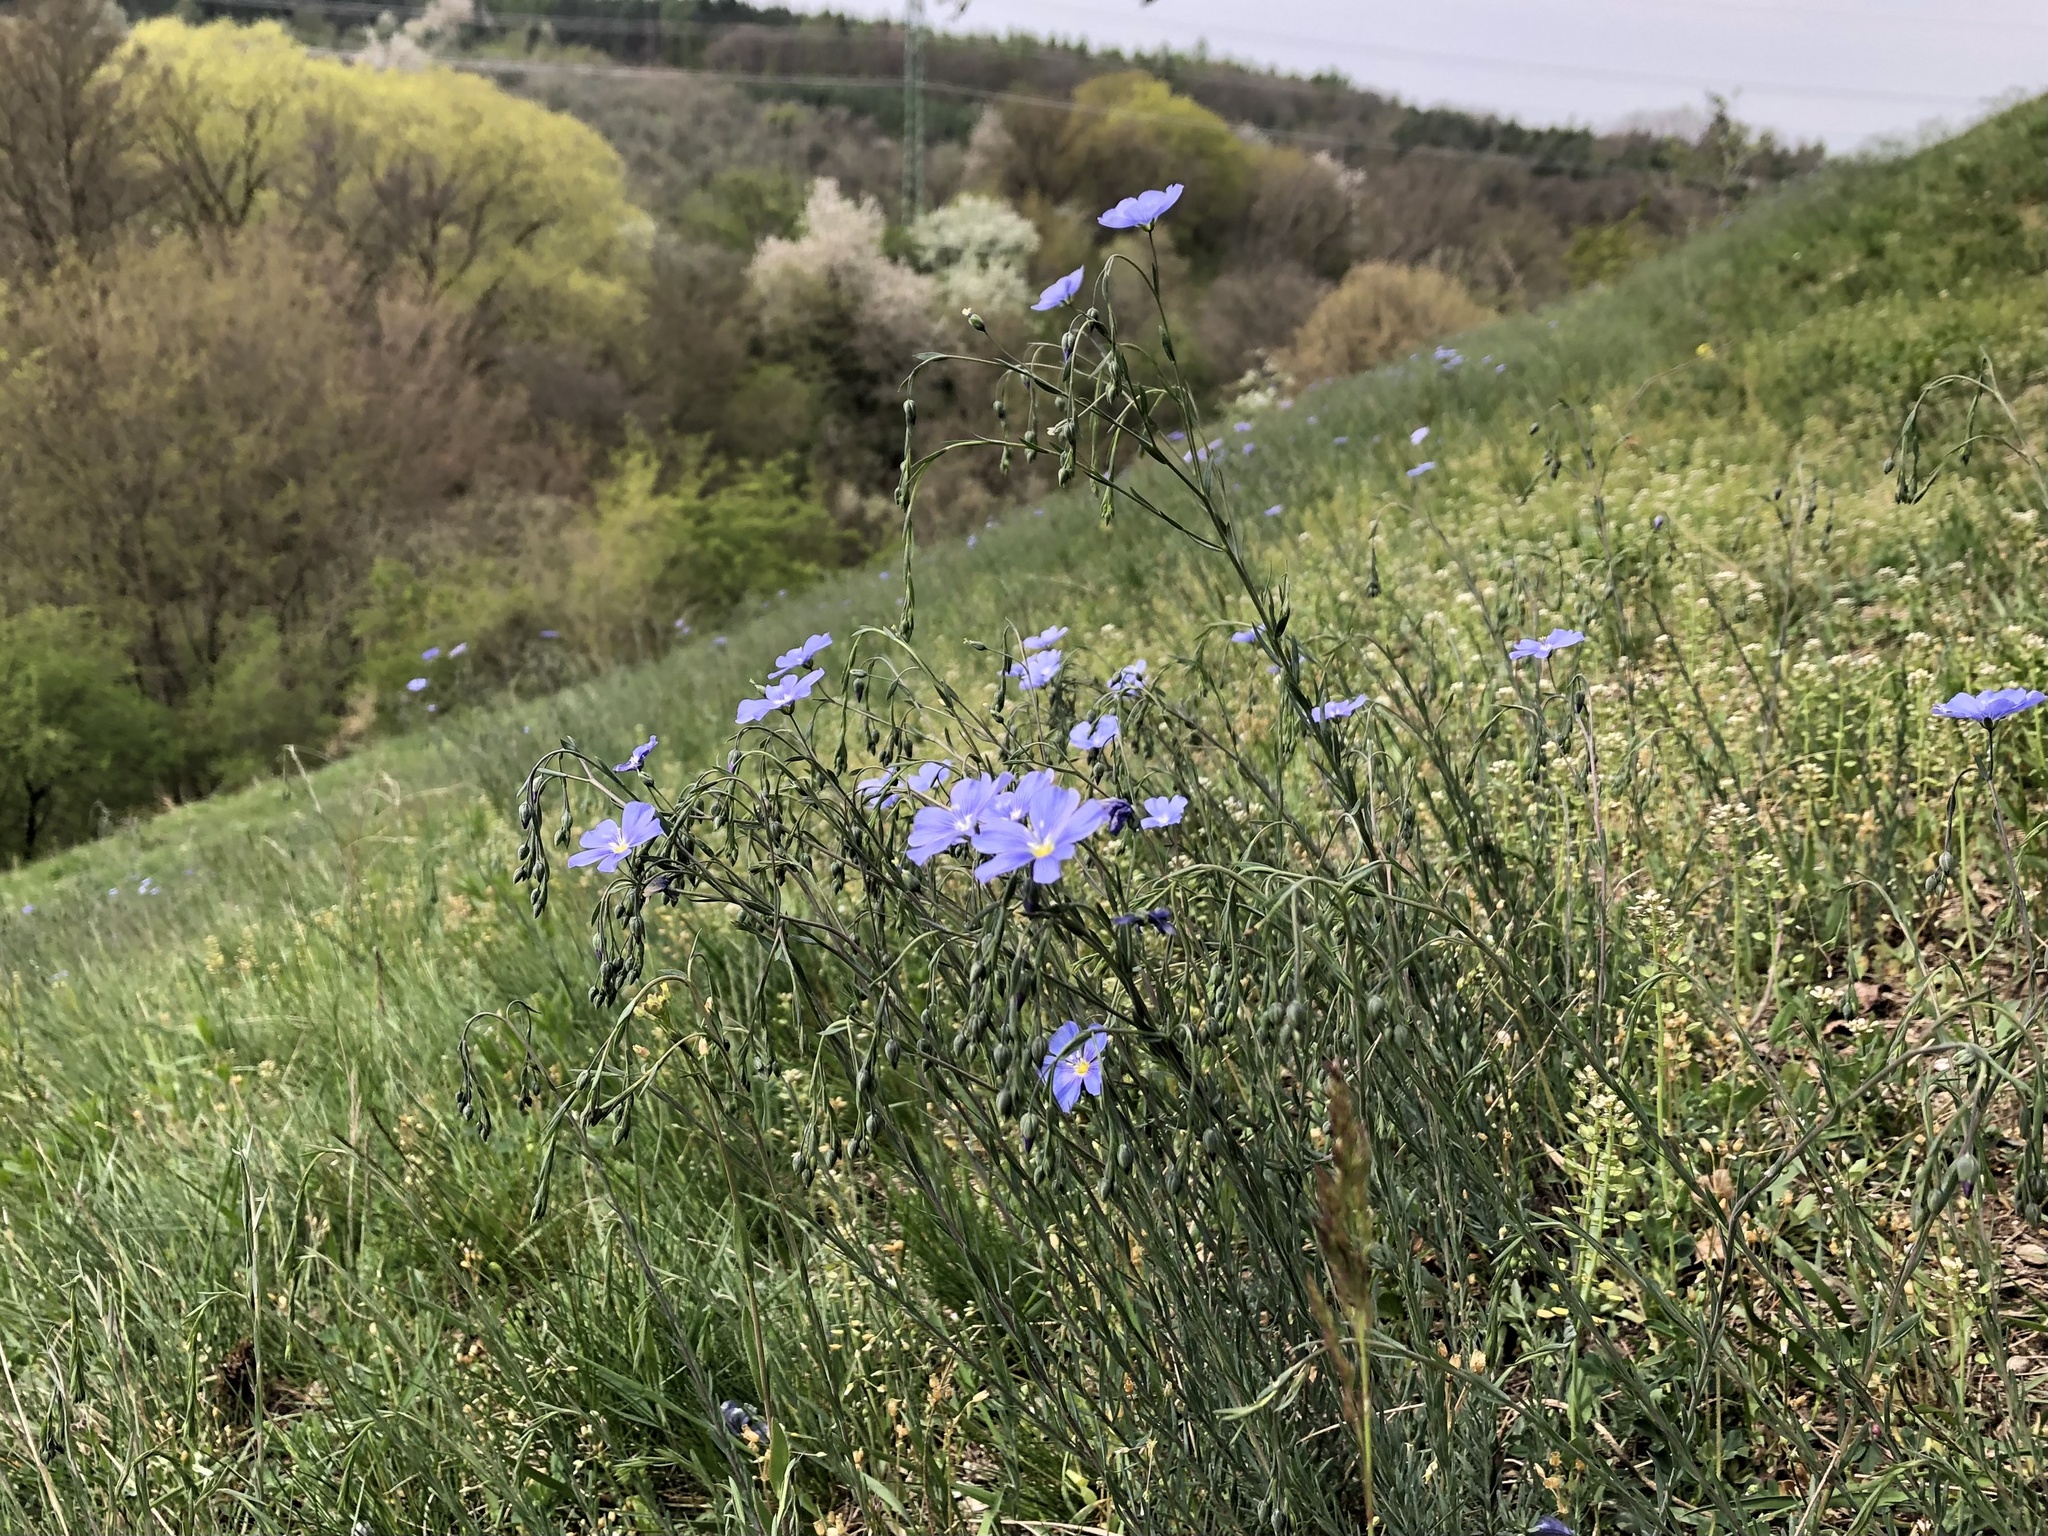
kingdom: Plantae
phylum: Tracheophyta
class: Magnoliopsida
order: Malpighiales
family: Linaceae
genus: Linum
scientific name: Linum austriacum
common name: Austrian flax
